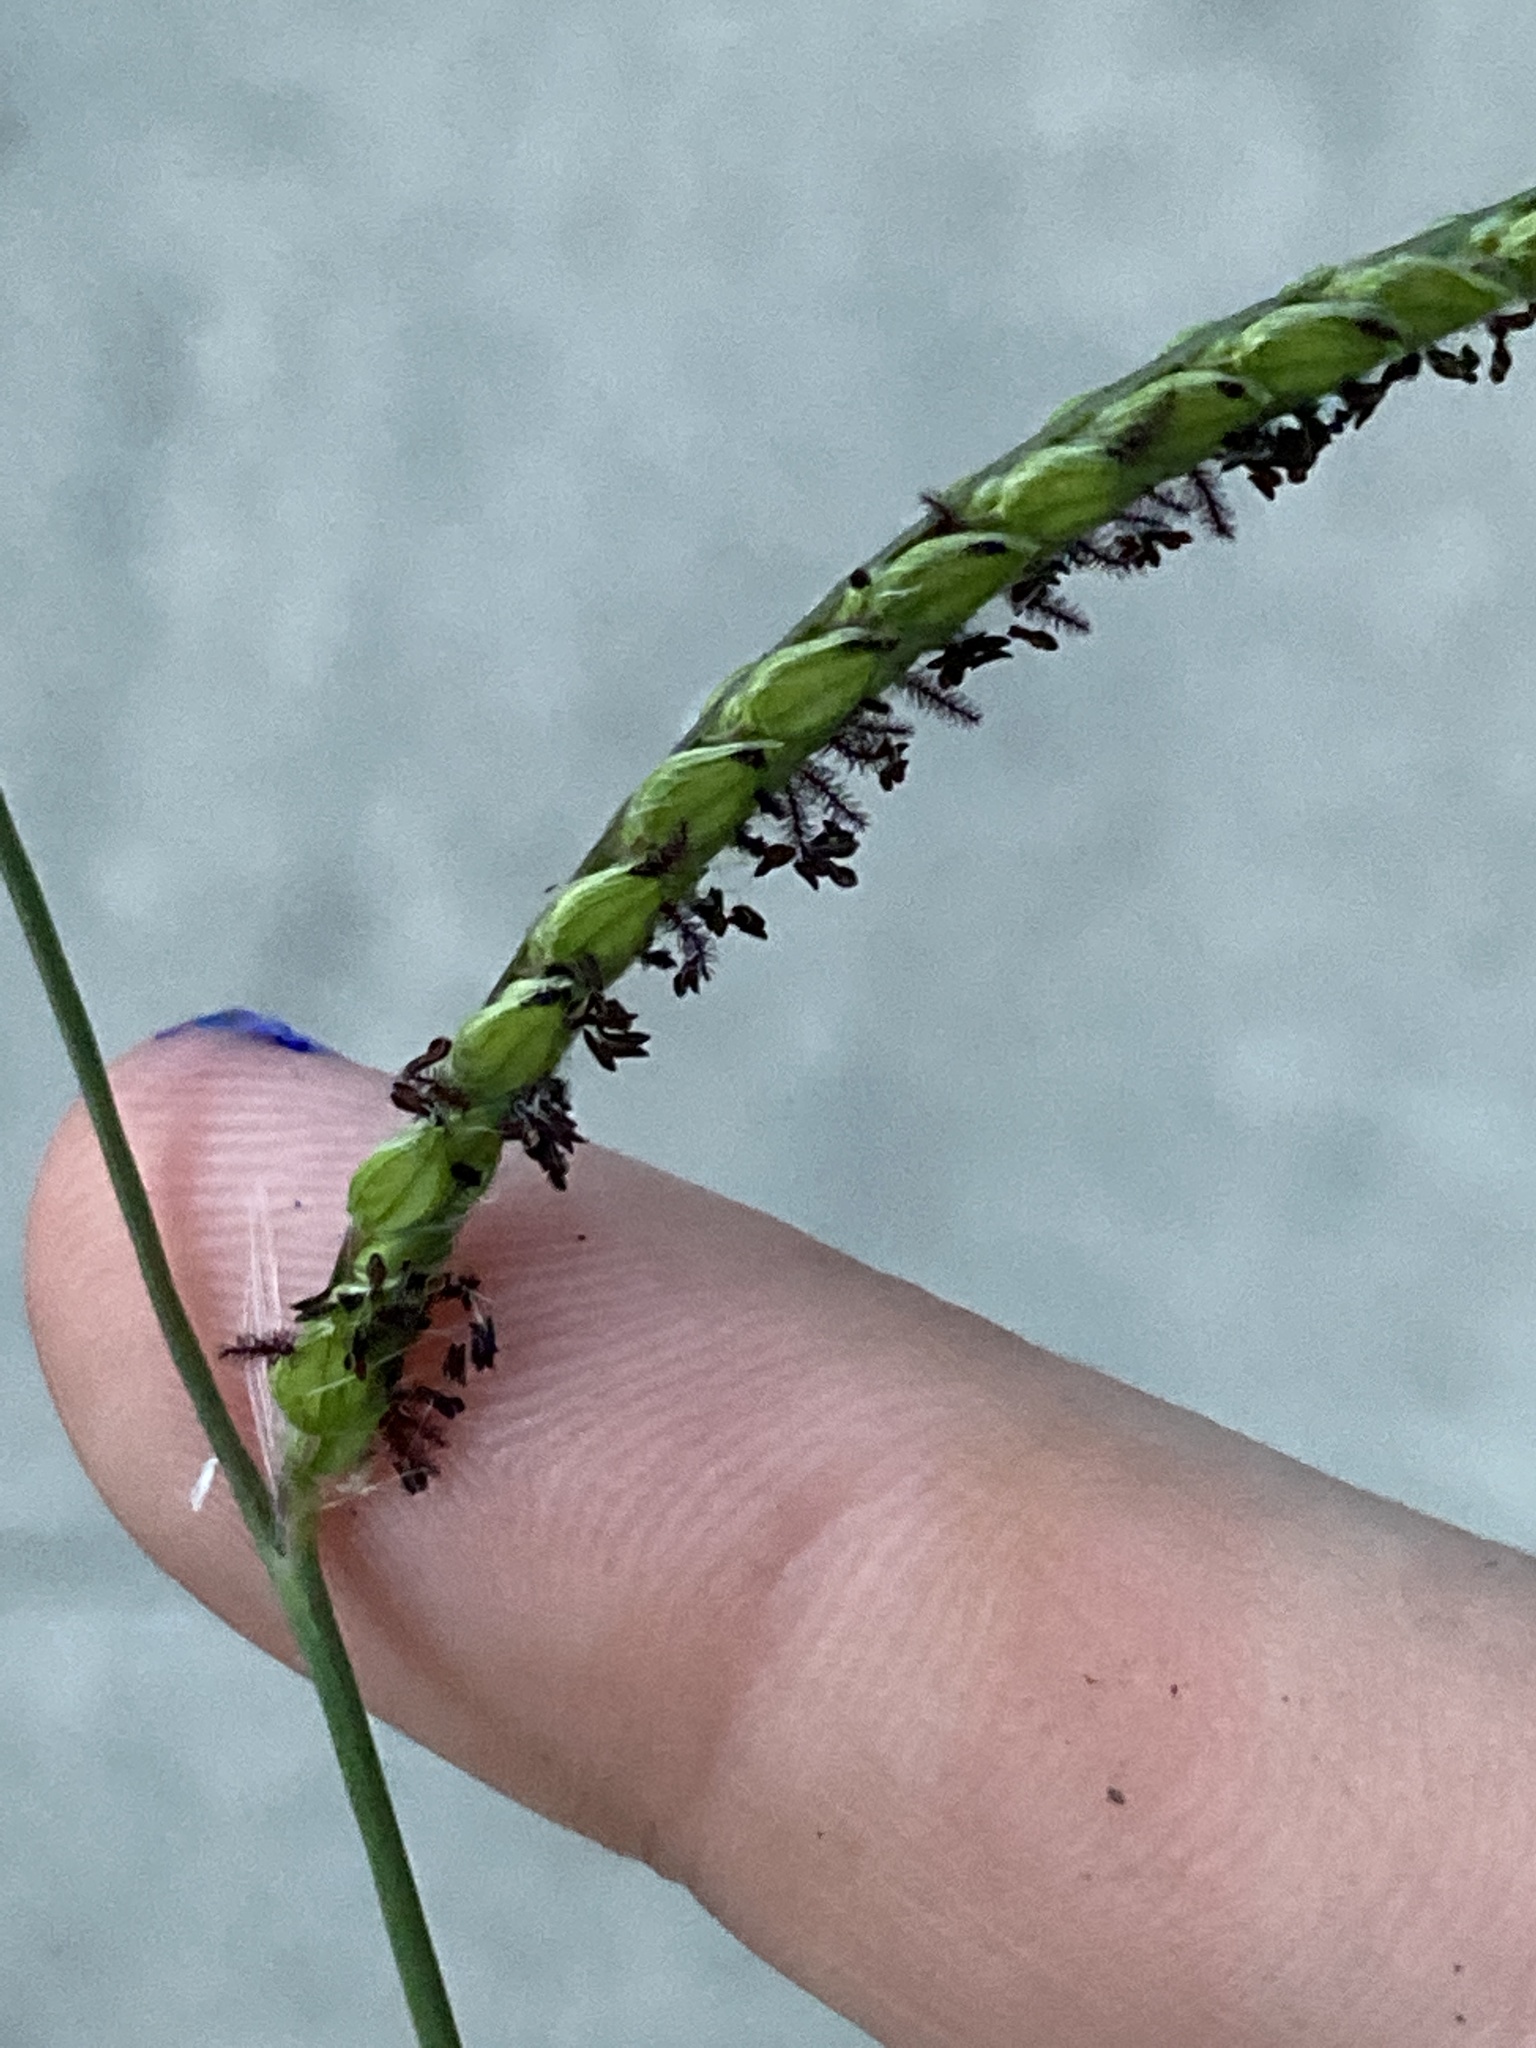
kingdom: Plantae
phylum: Tracheophyta
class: Liliopsida
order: Poales
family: Poaceae
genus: Paspalum
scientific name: Paspalum dilatatum
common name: Dallisgrass
